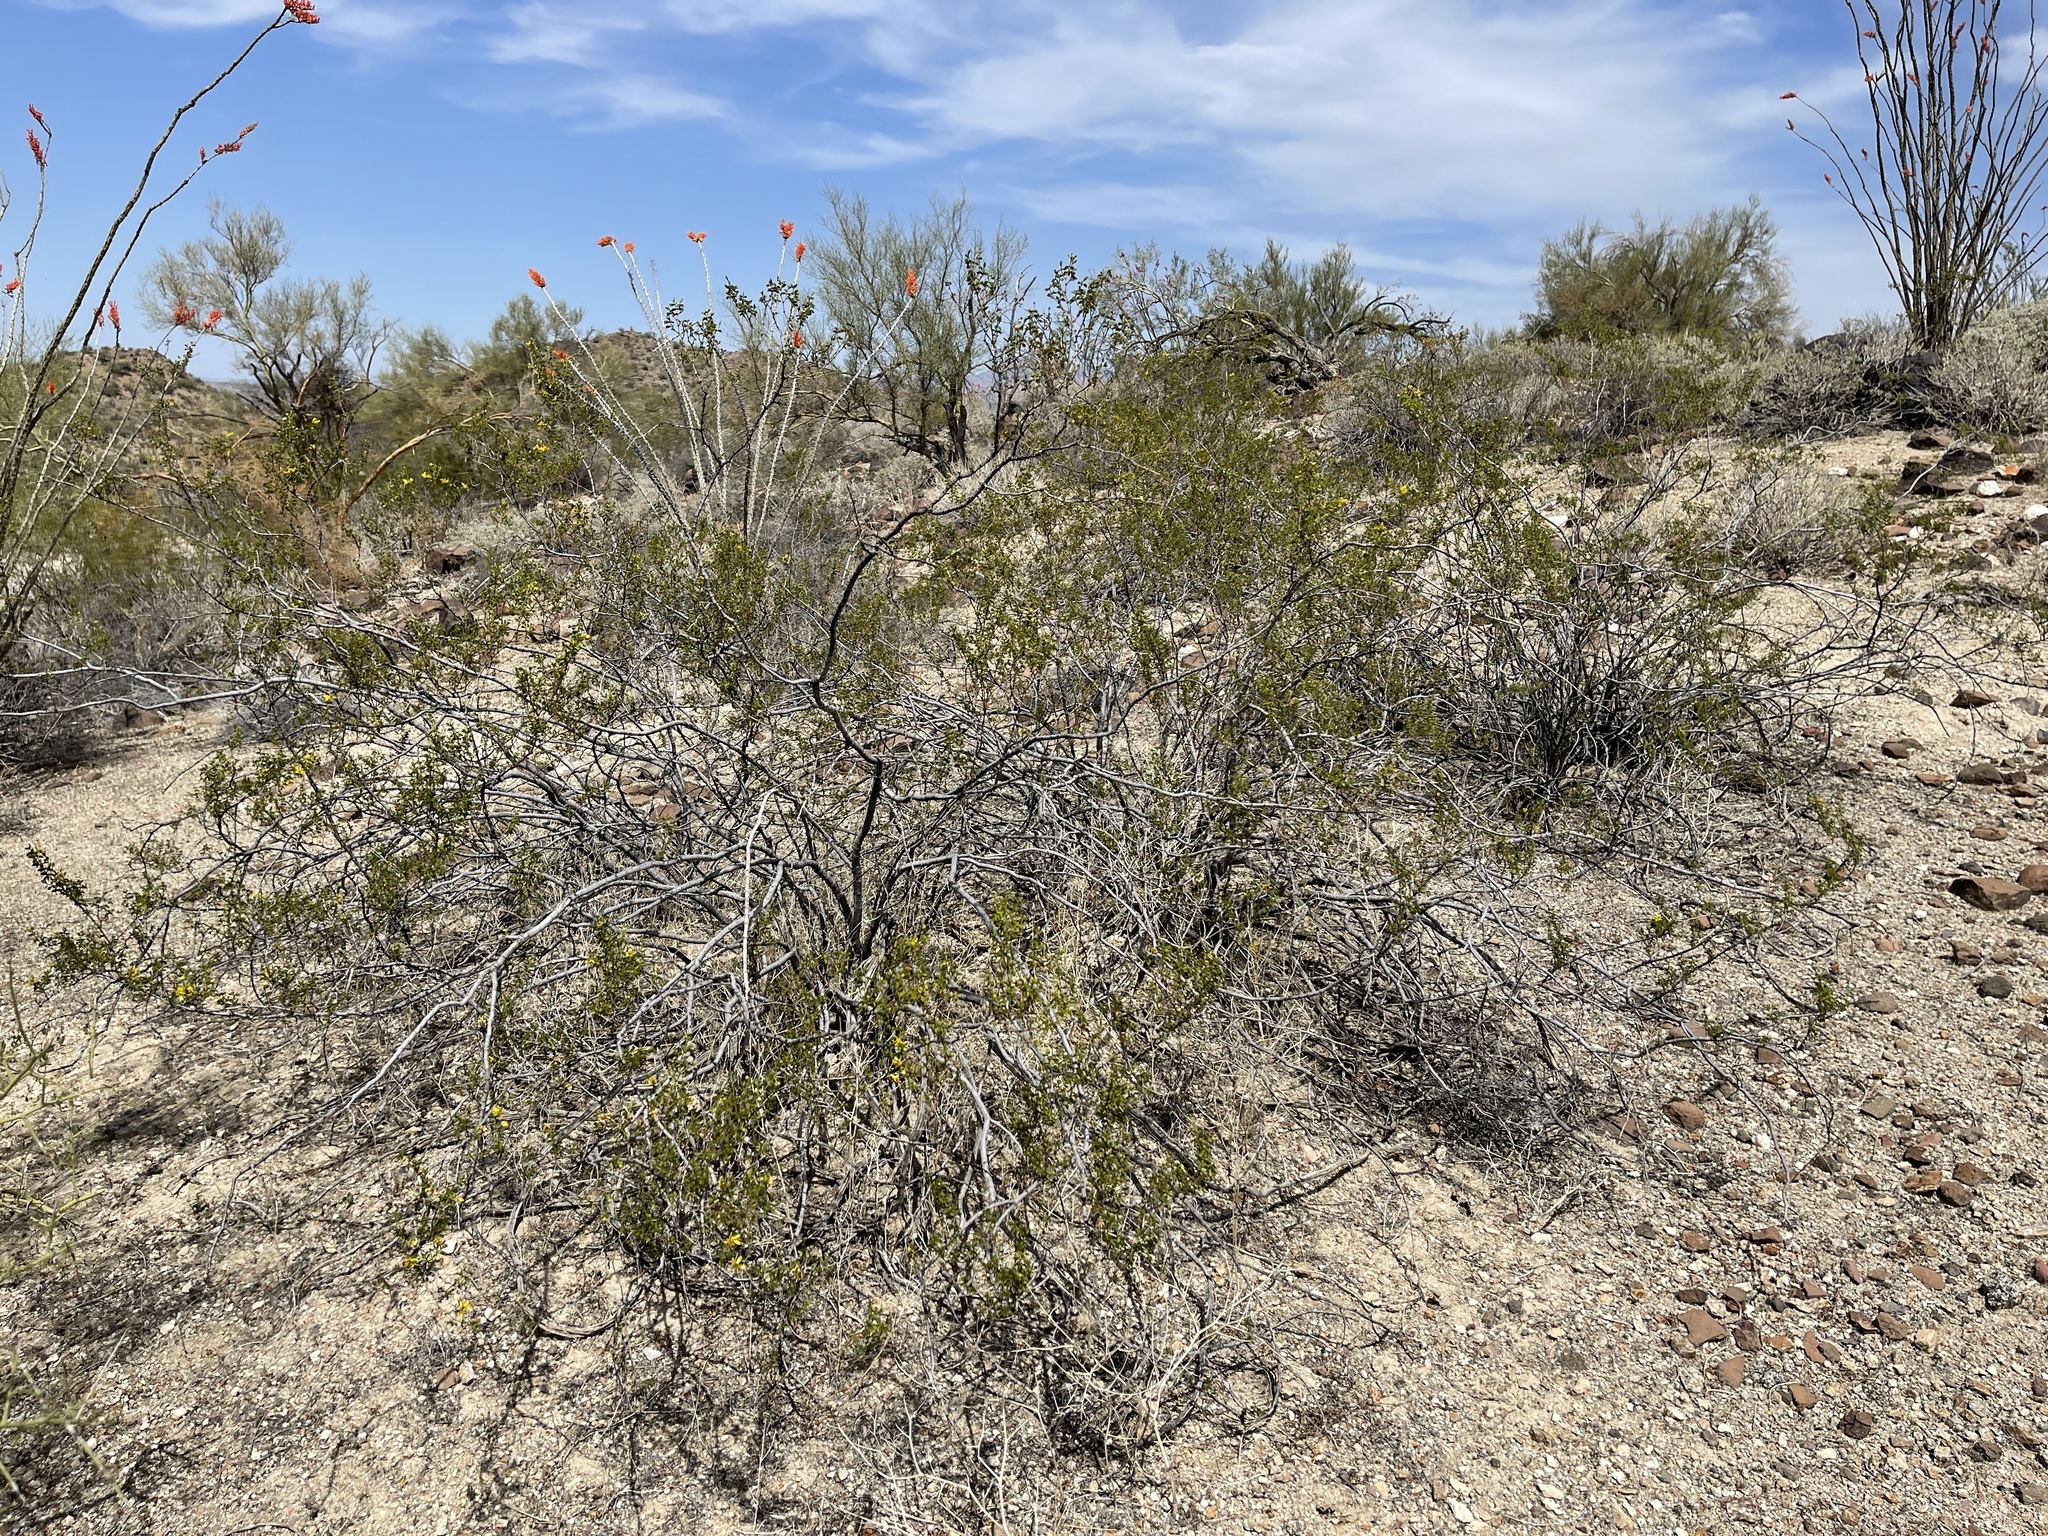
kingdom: Plantae
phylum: Tracheophyta
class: Magnoliopsida
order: Zygophyllales
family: Zygophyllaceae
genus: Larrea
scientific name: Larrea tridentata
